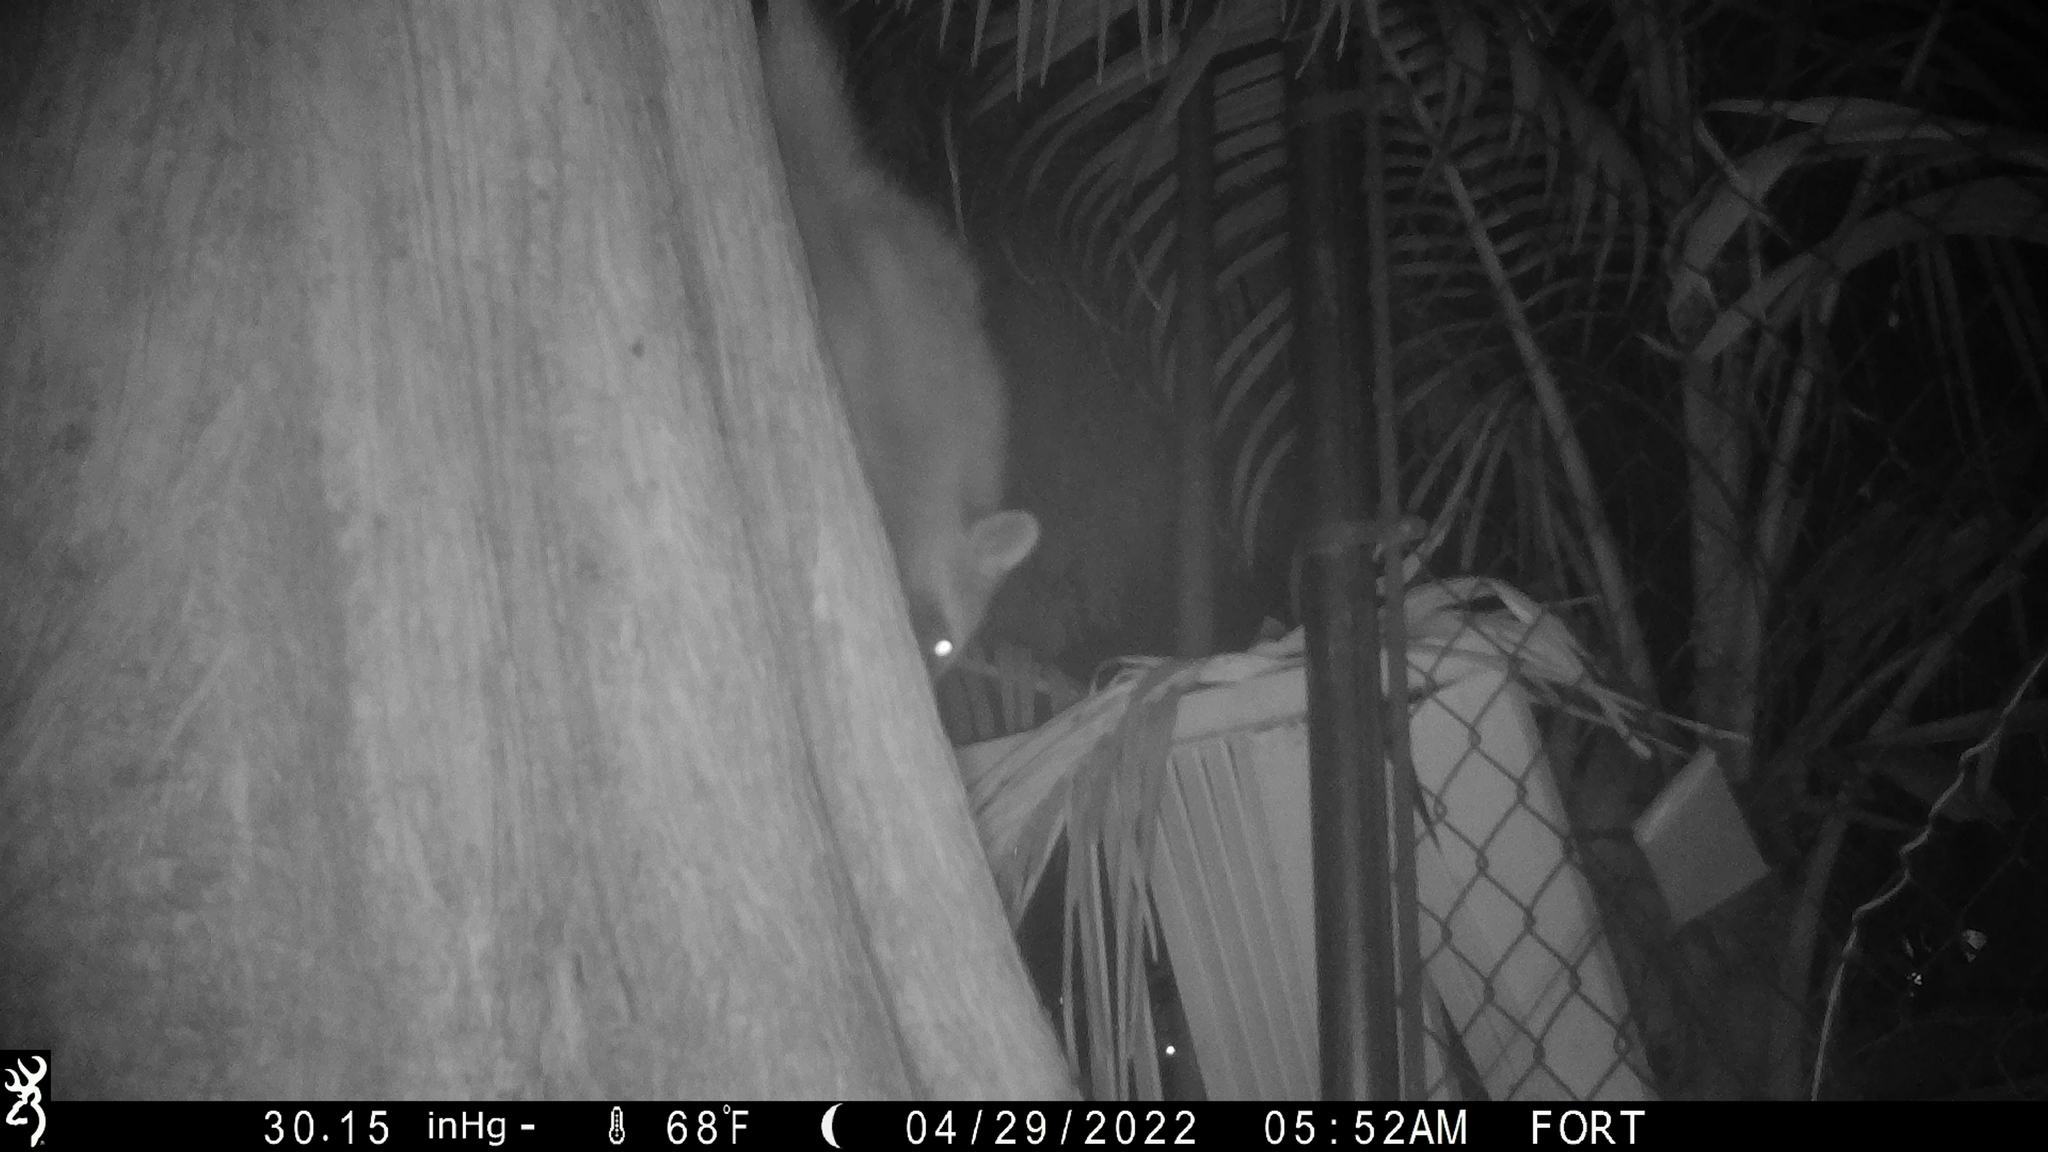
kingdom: Animalia
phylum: Chordata
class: Mammalia
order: Carnivora
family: Procyonidae
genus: Procyon
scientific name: Procyon lotor
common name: Raccoon
